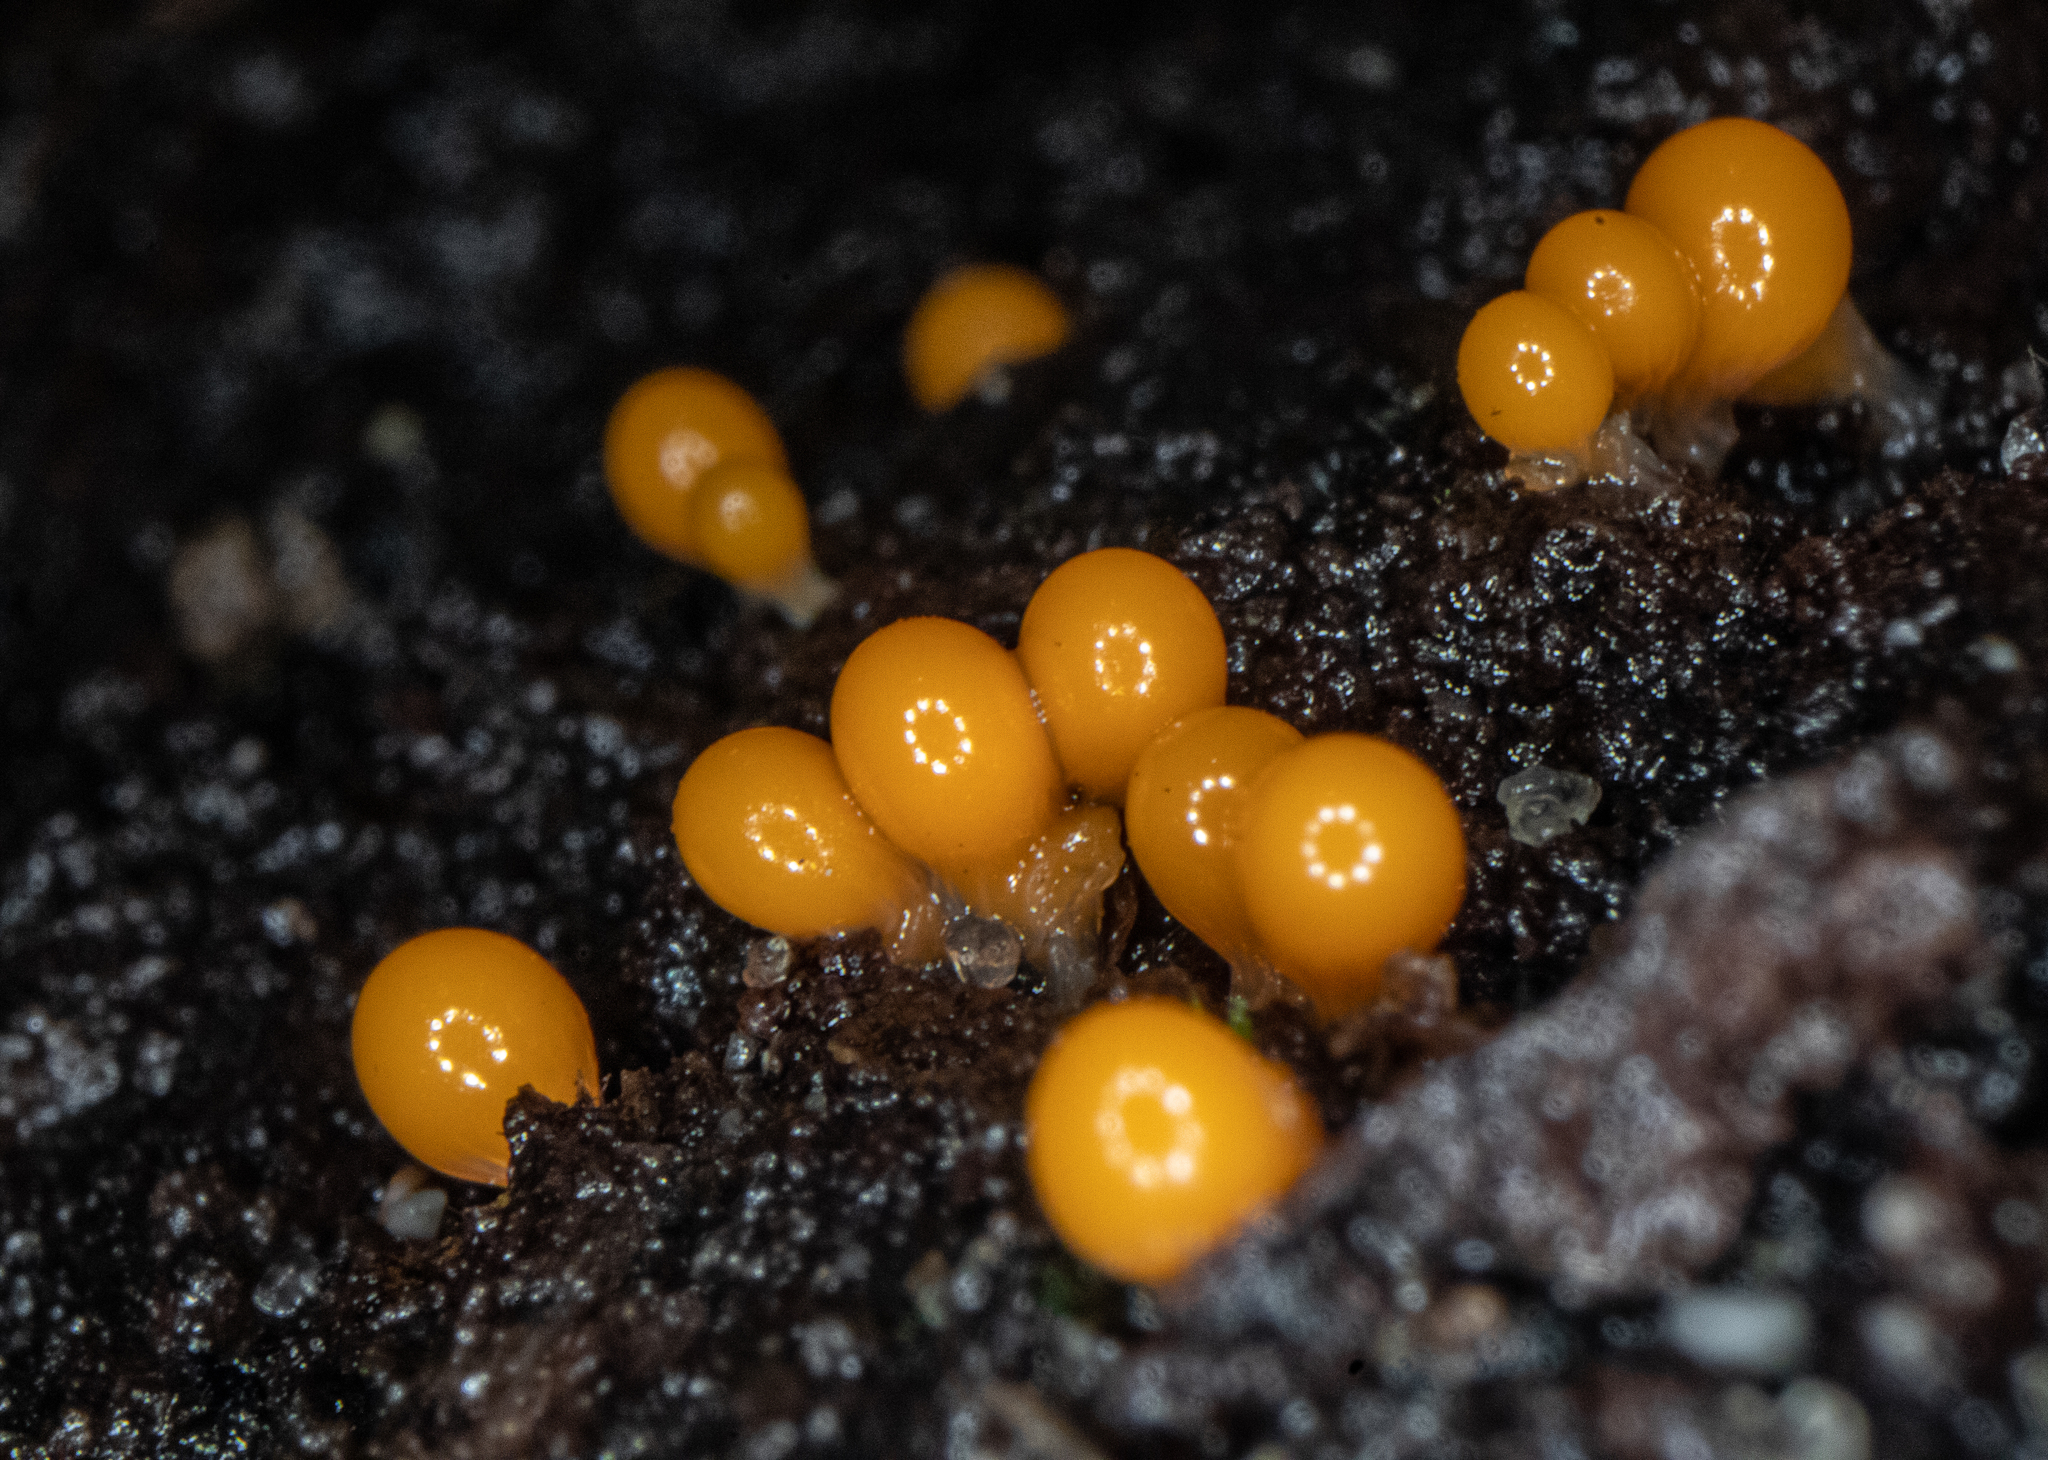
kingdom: Protozoa
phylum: Mycetozoa
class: Myxomycetes
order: Trichiales
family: Arcyriaceae
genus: Hemitrichia
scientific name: Hemitrichia decipiens
